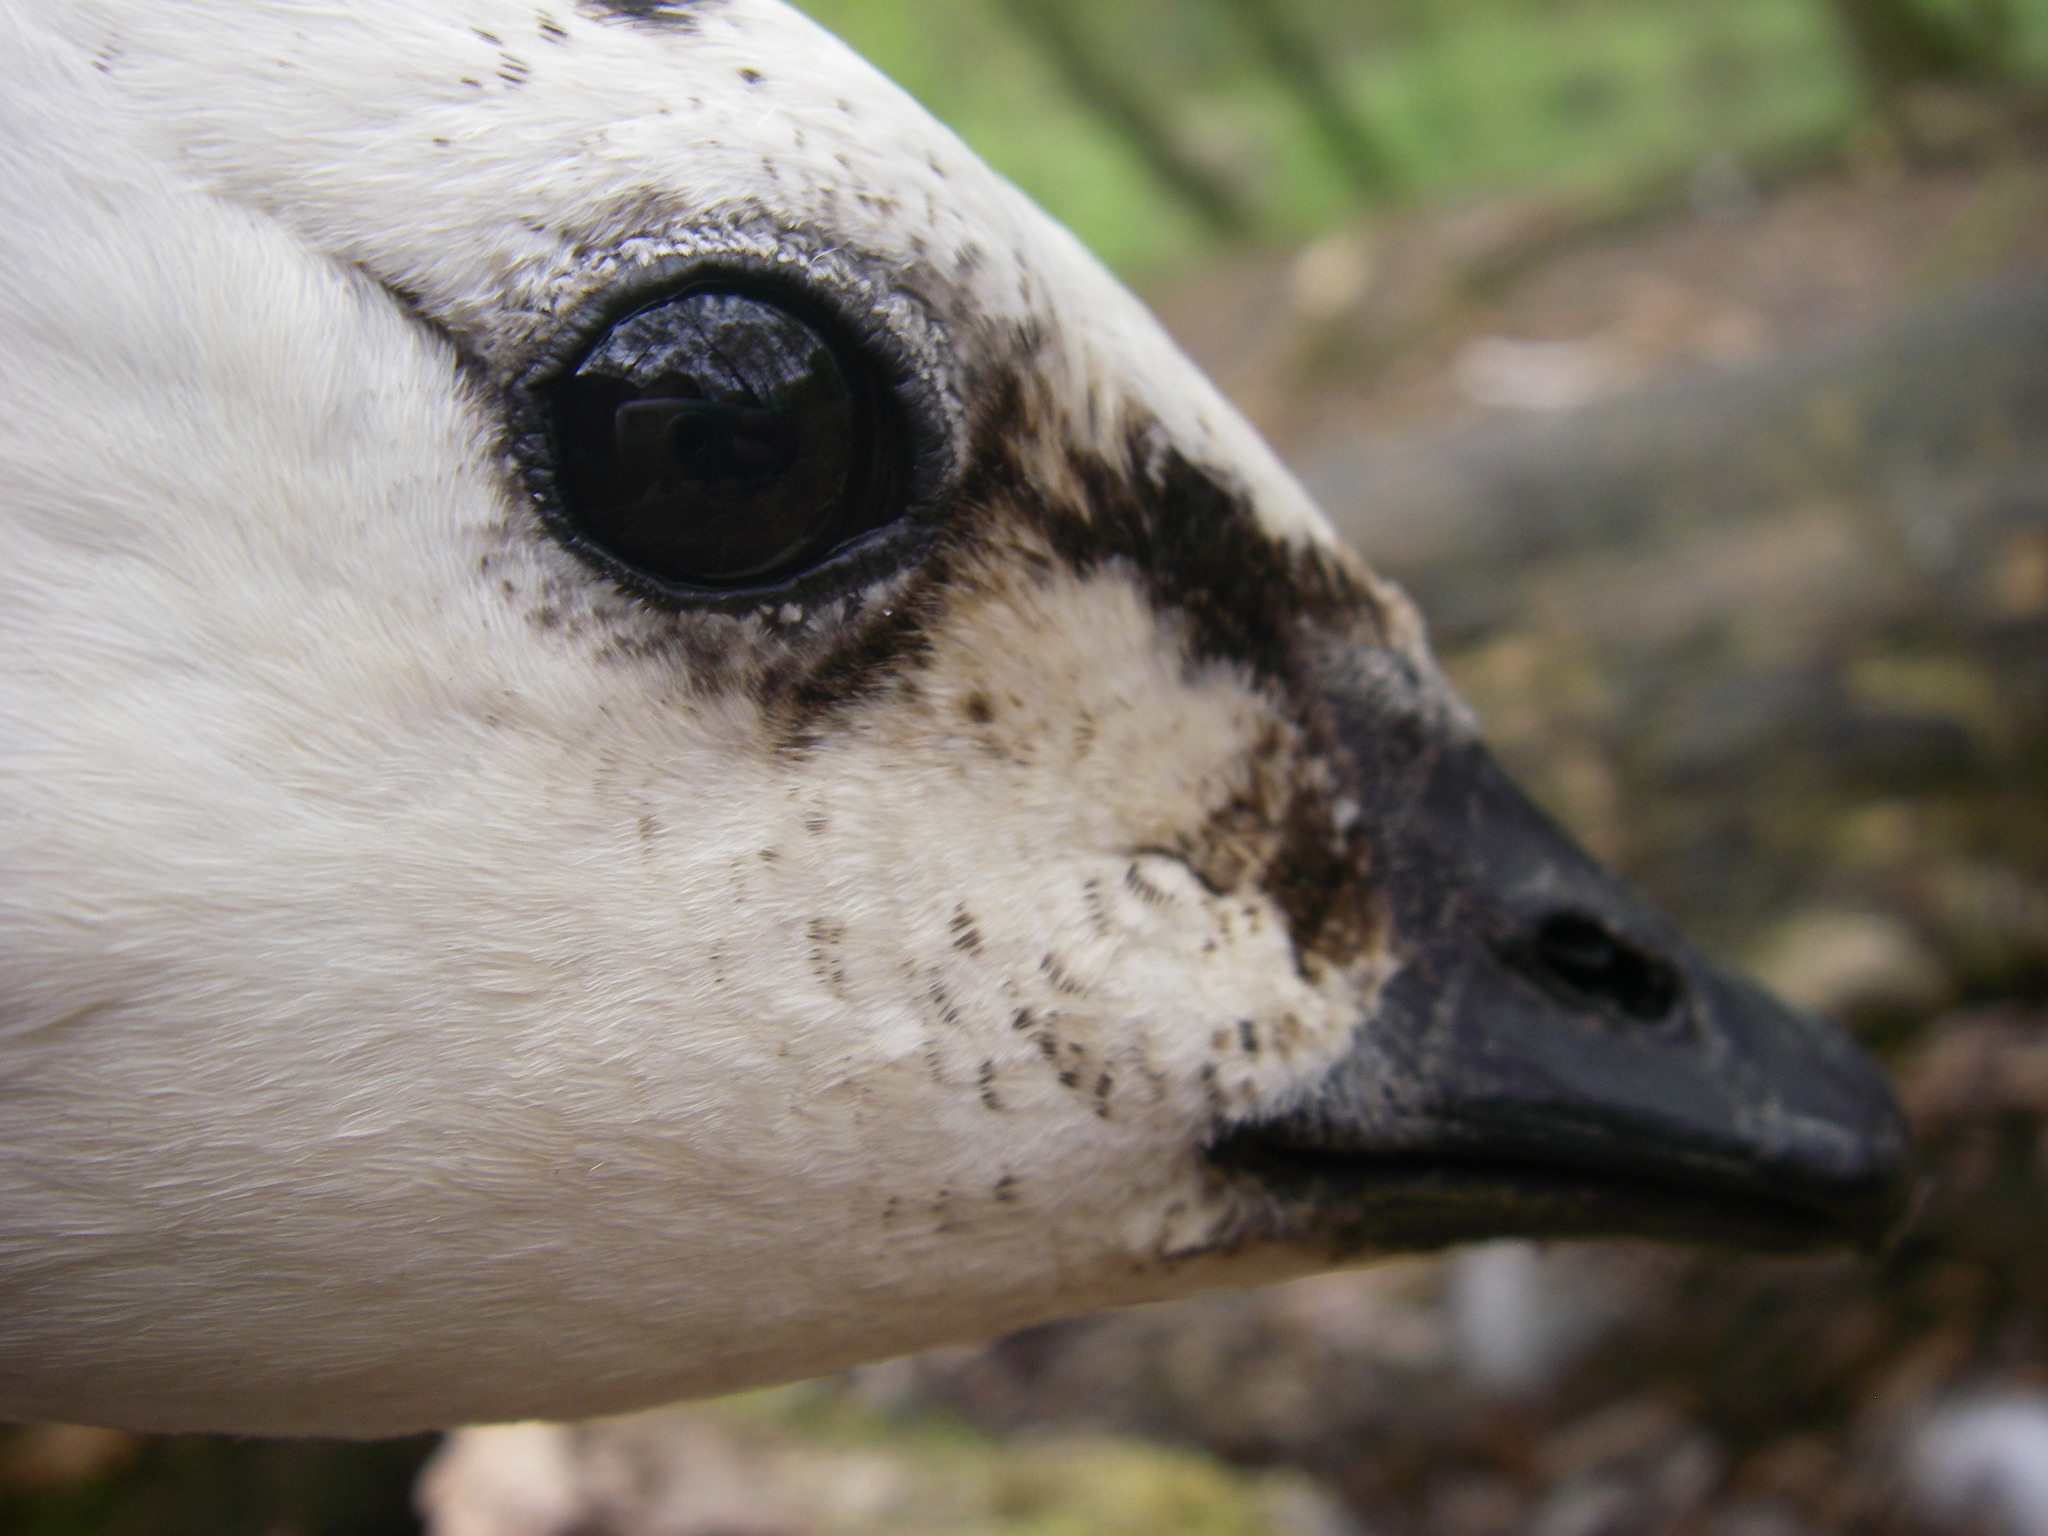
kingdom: Animalia
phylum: Chordata
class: Aves
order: Anseriformes
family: Anatidae
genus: Branta
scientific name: Branta leucopsis
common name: Barnacle goose
